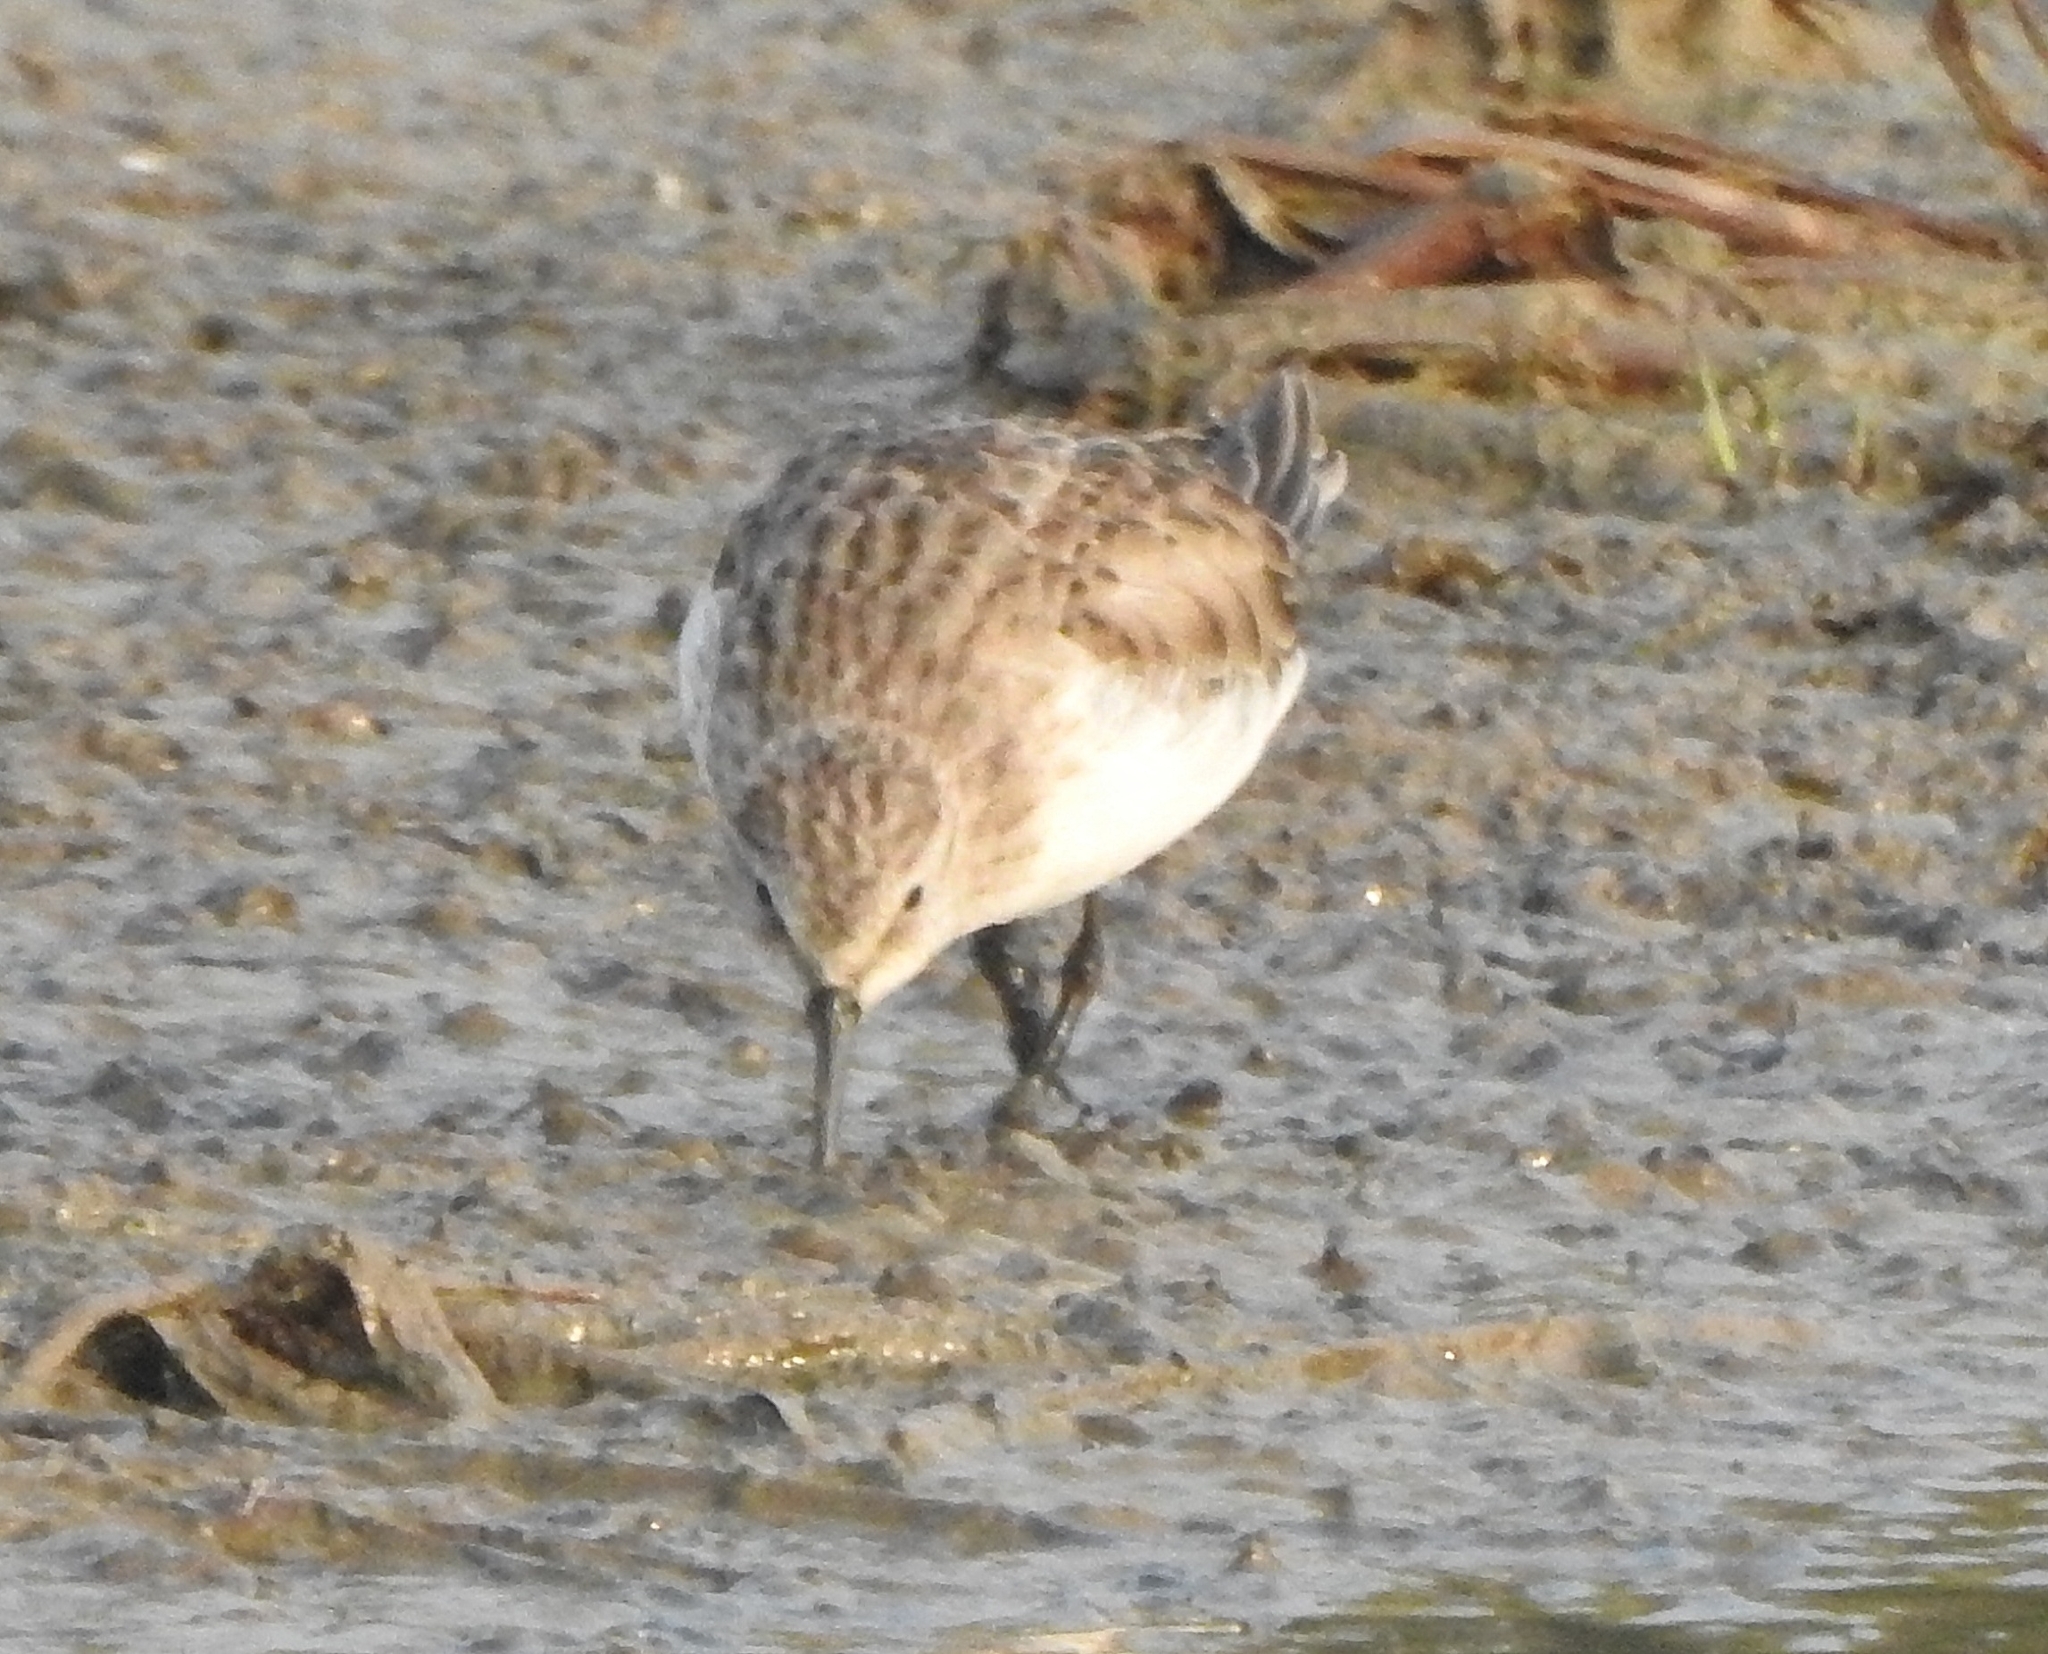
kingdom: Animalia
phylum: Chordata
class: Aves
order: Charadriiformes
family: Scolopacidae
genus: Calidris
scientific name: Calidris minuta
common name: Little stint
